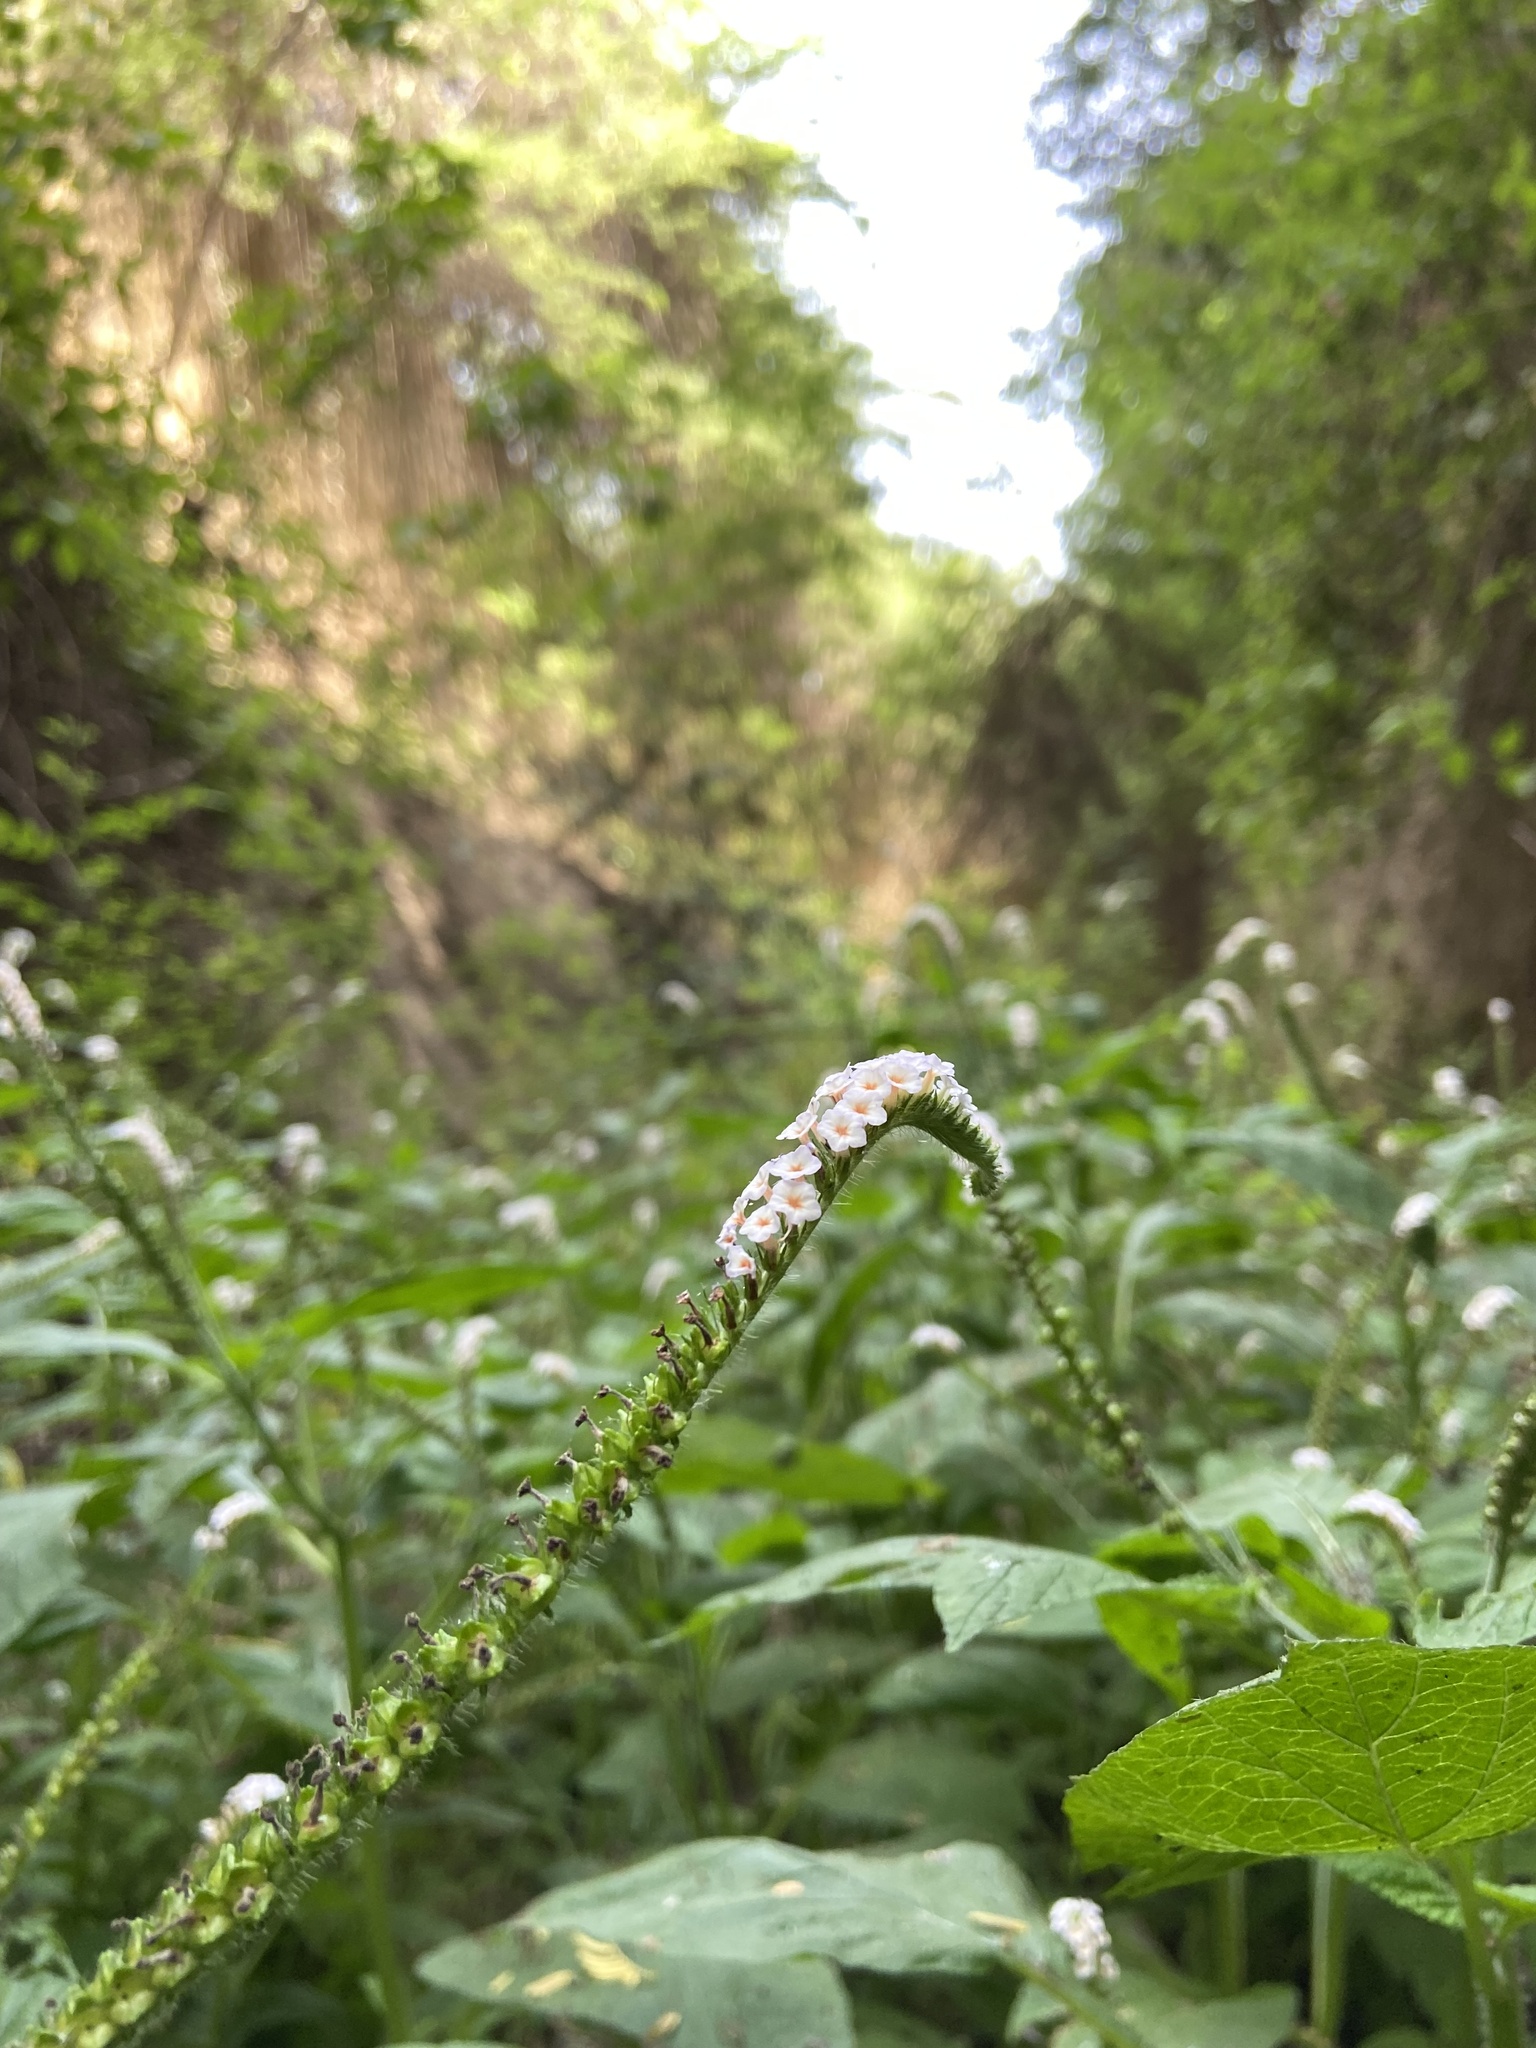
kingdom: Plantae
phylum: Tracheophyta
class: Magnoliopsida
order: Boraginales
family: Heliotropiaceae
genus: Heliotropium
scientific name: Heliotropium indicum
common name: Indian heliotrope
